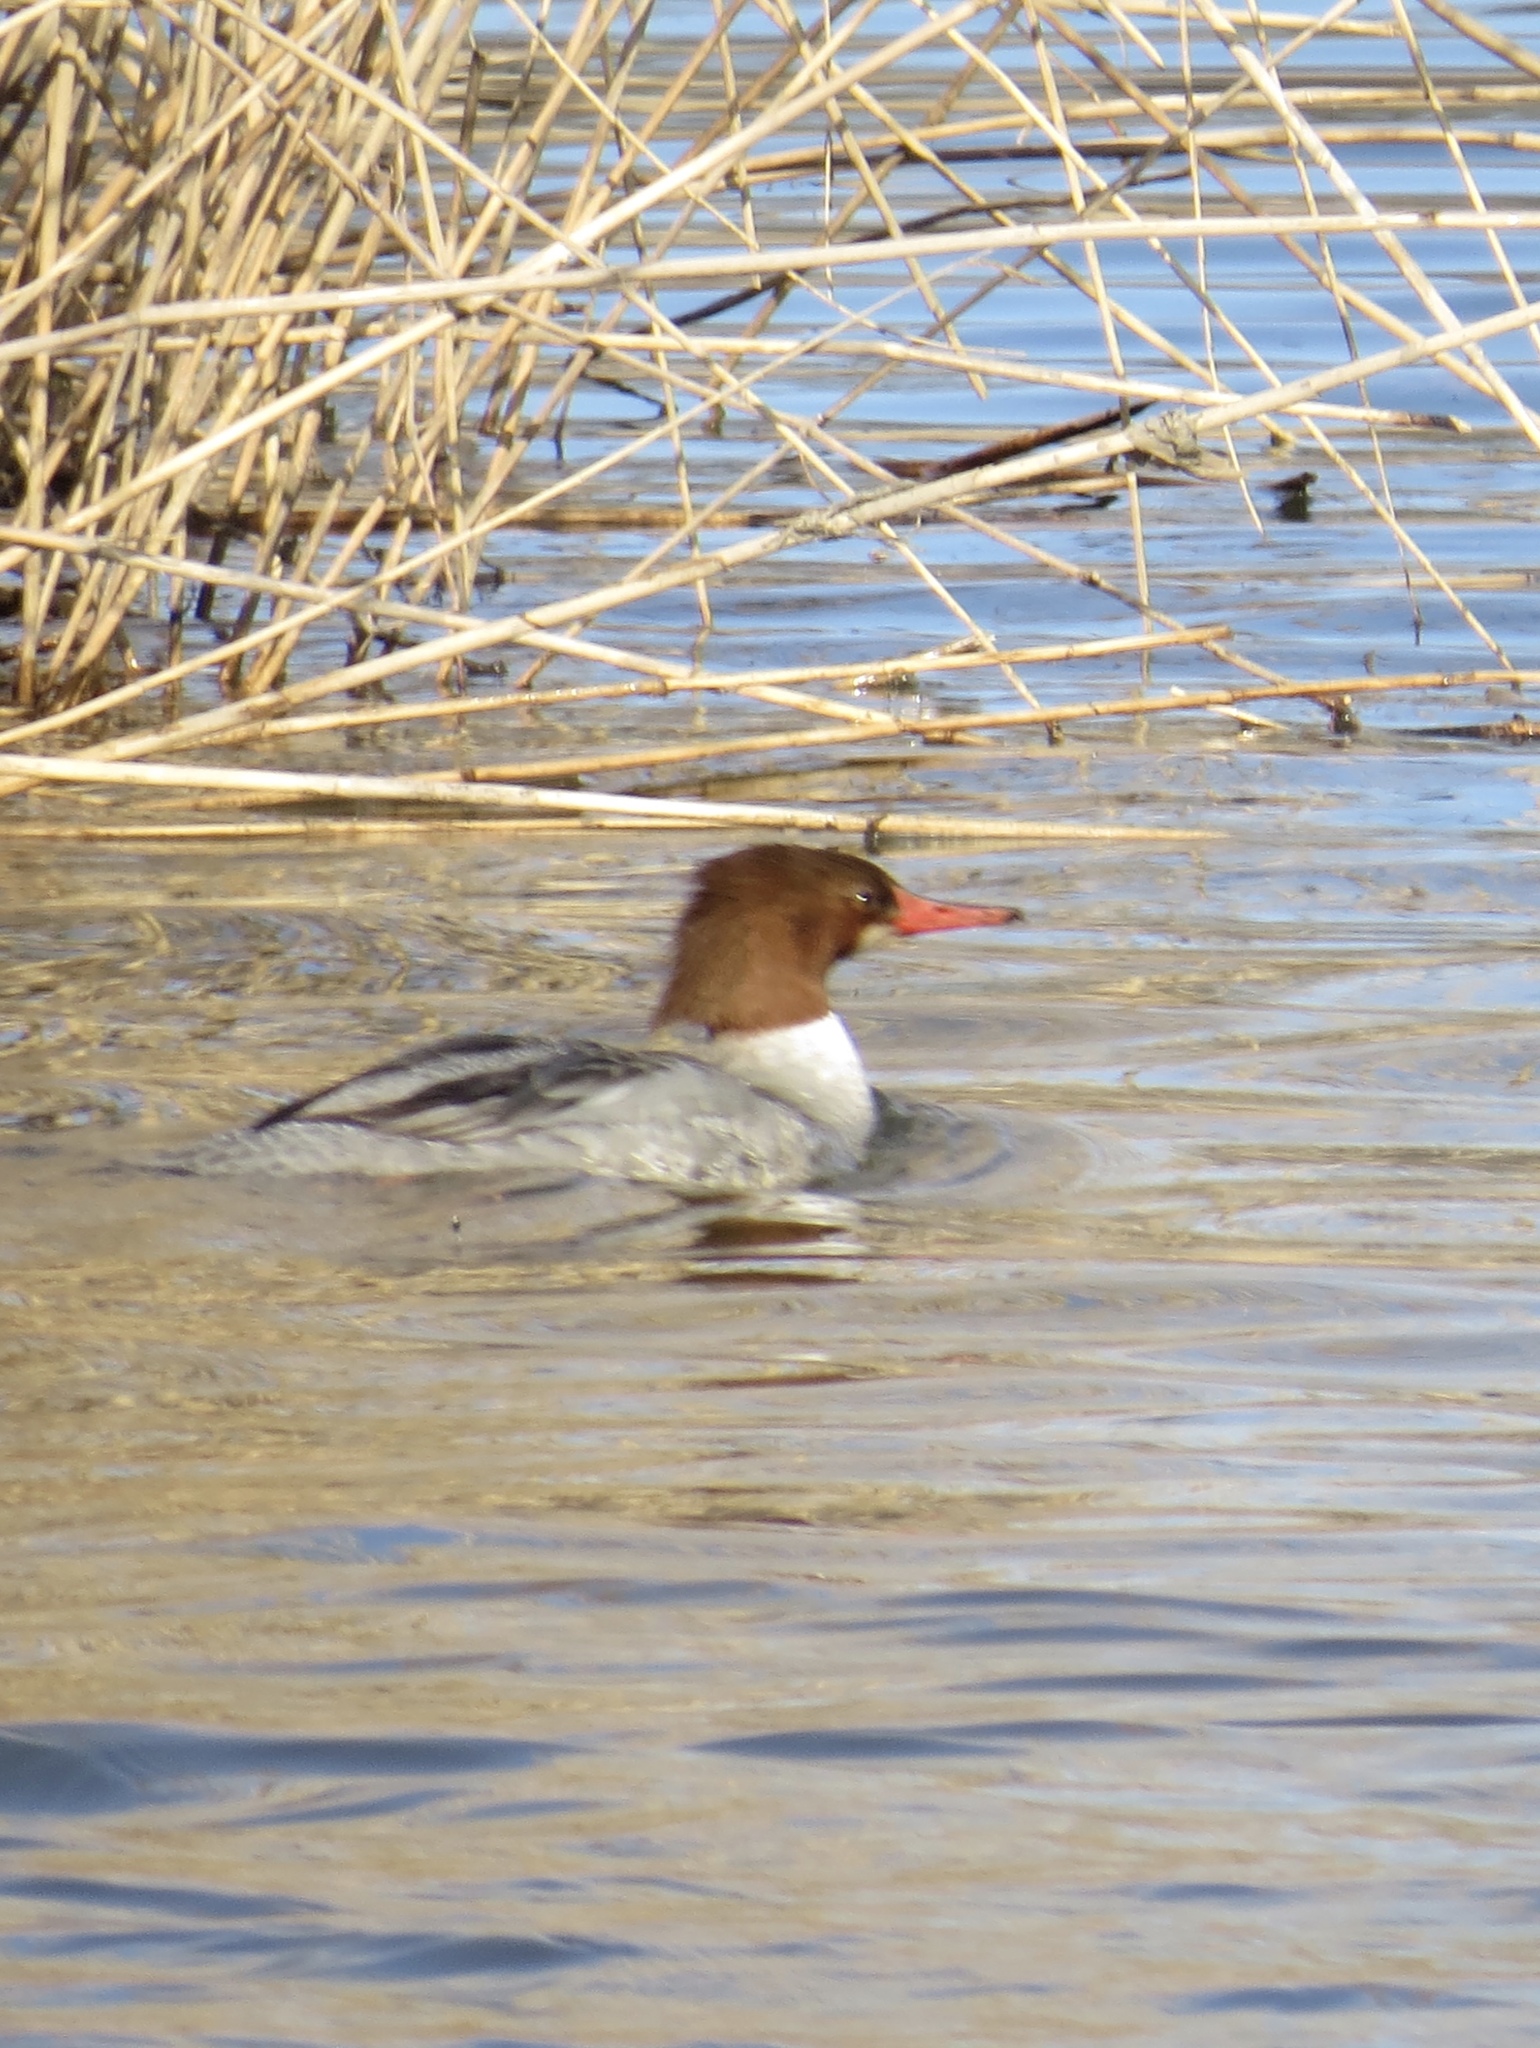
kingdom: Animalia
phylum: Chordata
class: Aves
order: Anseriformes
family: Anatidae
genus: Mergus
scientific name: Mergus merganser
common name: Common merganser
